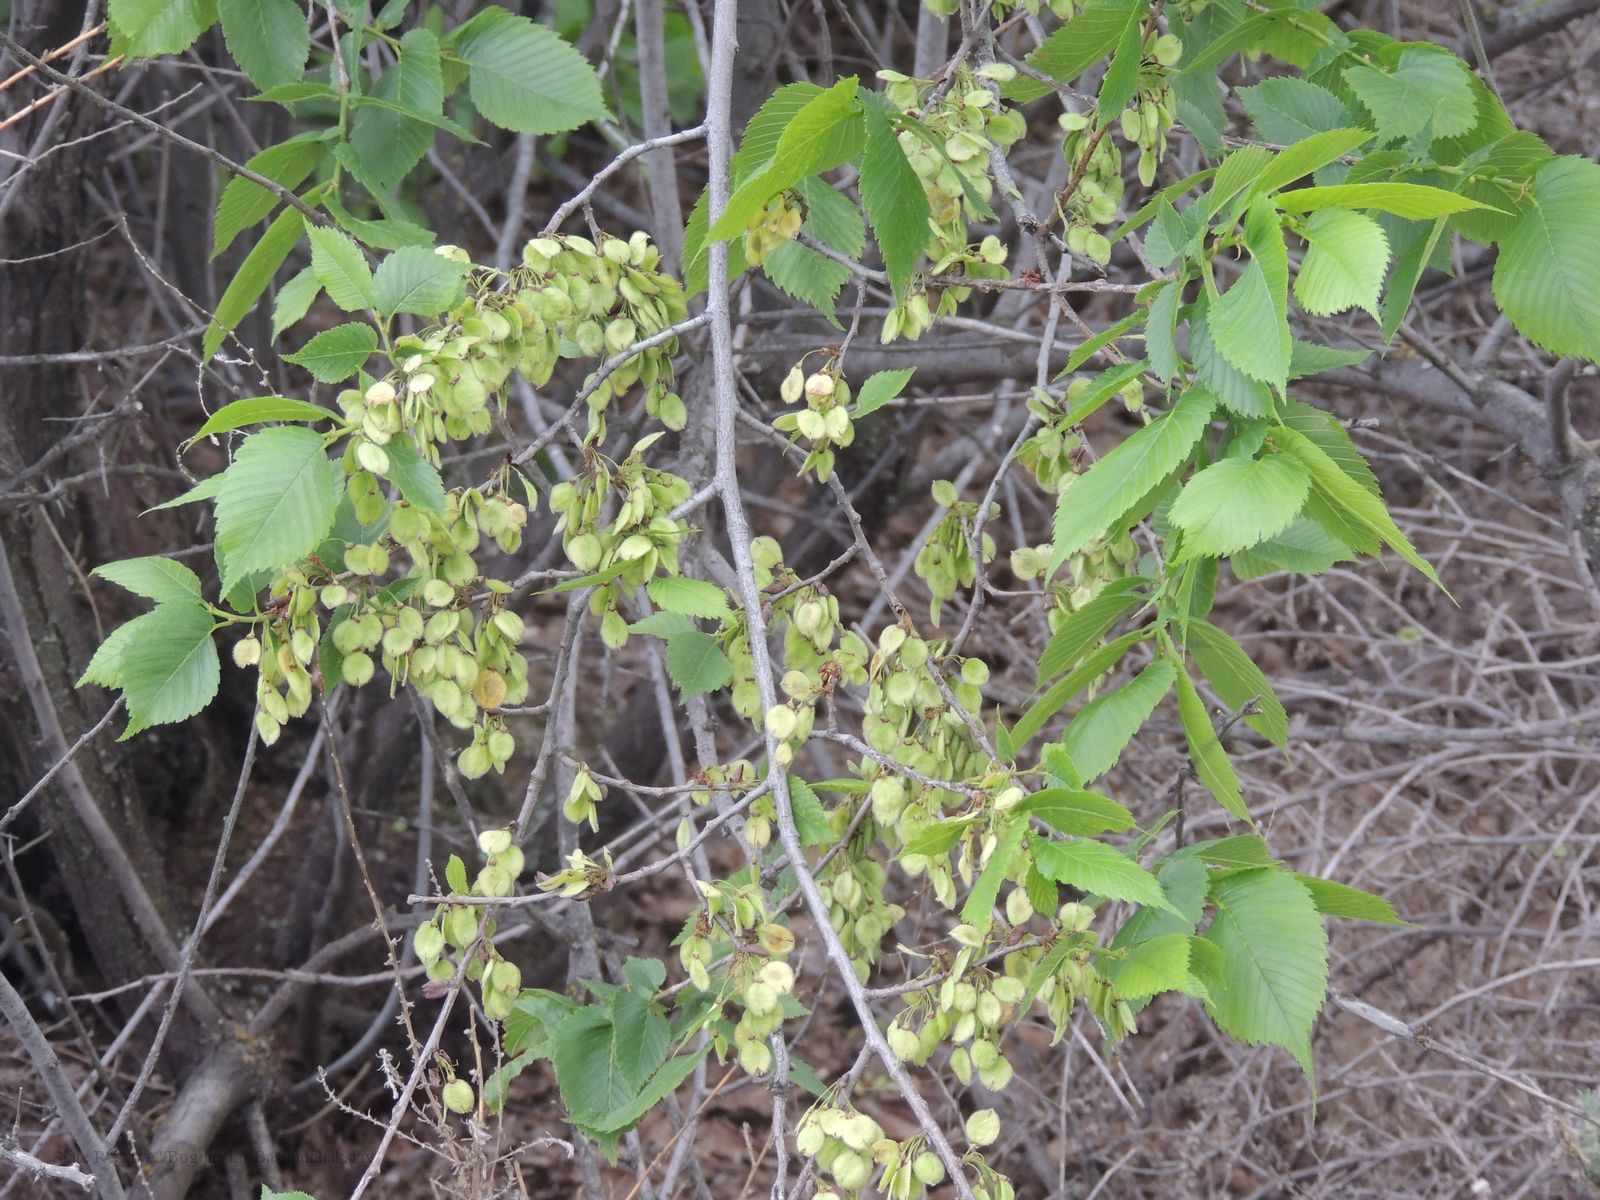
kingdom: Plantae
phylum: Tracheophyta
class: Magnoliopsida
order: Rosales
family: Ulmaceae
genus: Ulmus
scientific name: Ulmus laevis
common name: European white-elm
